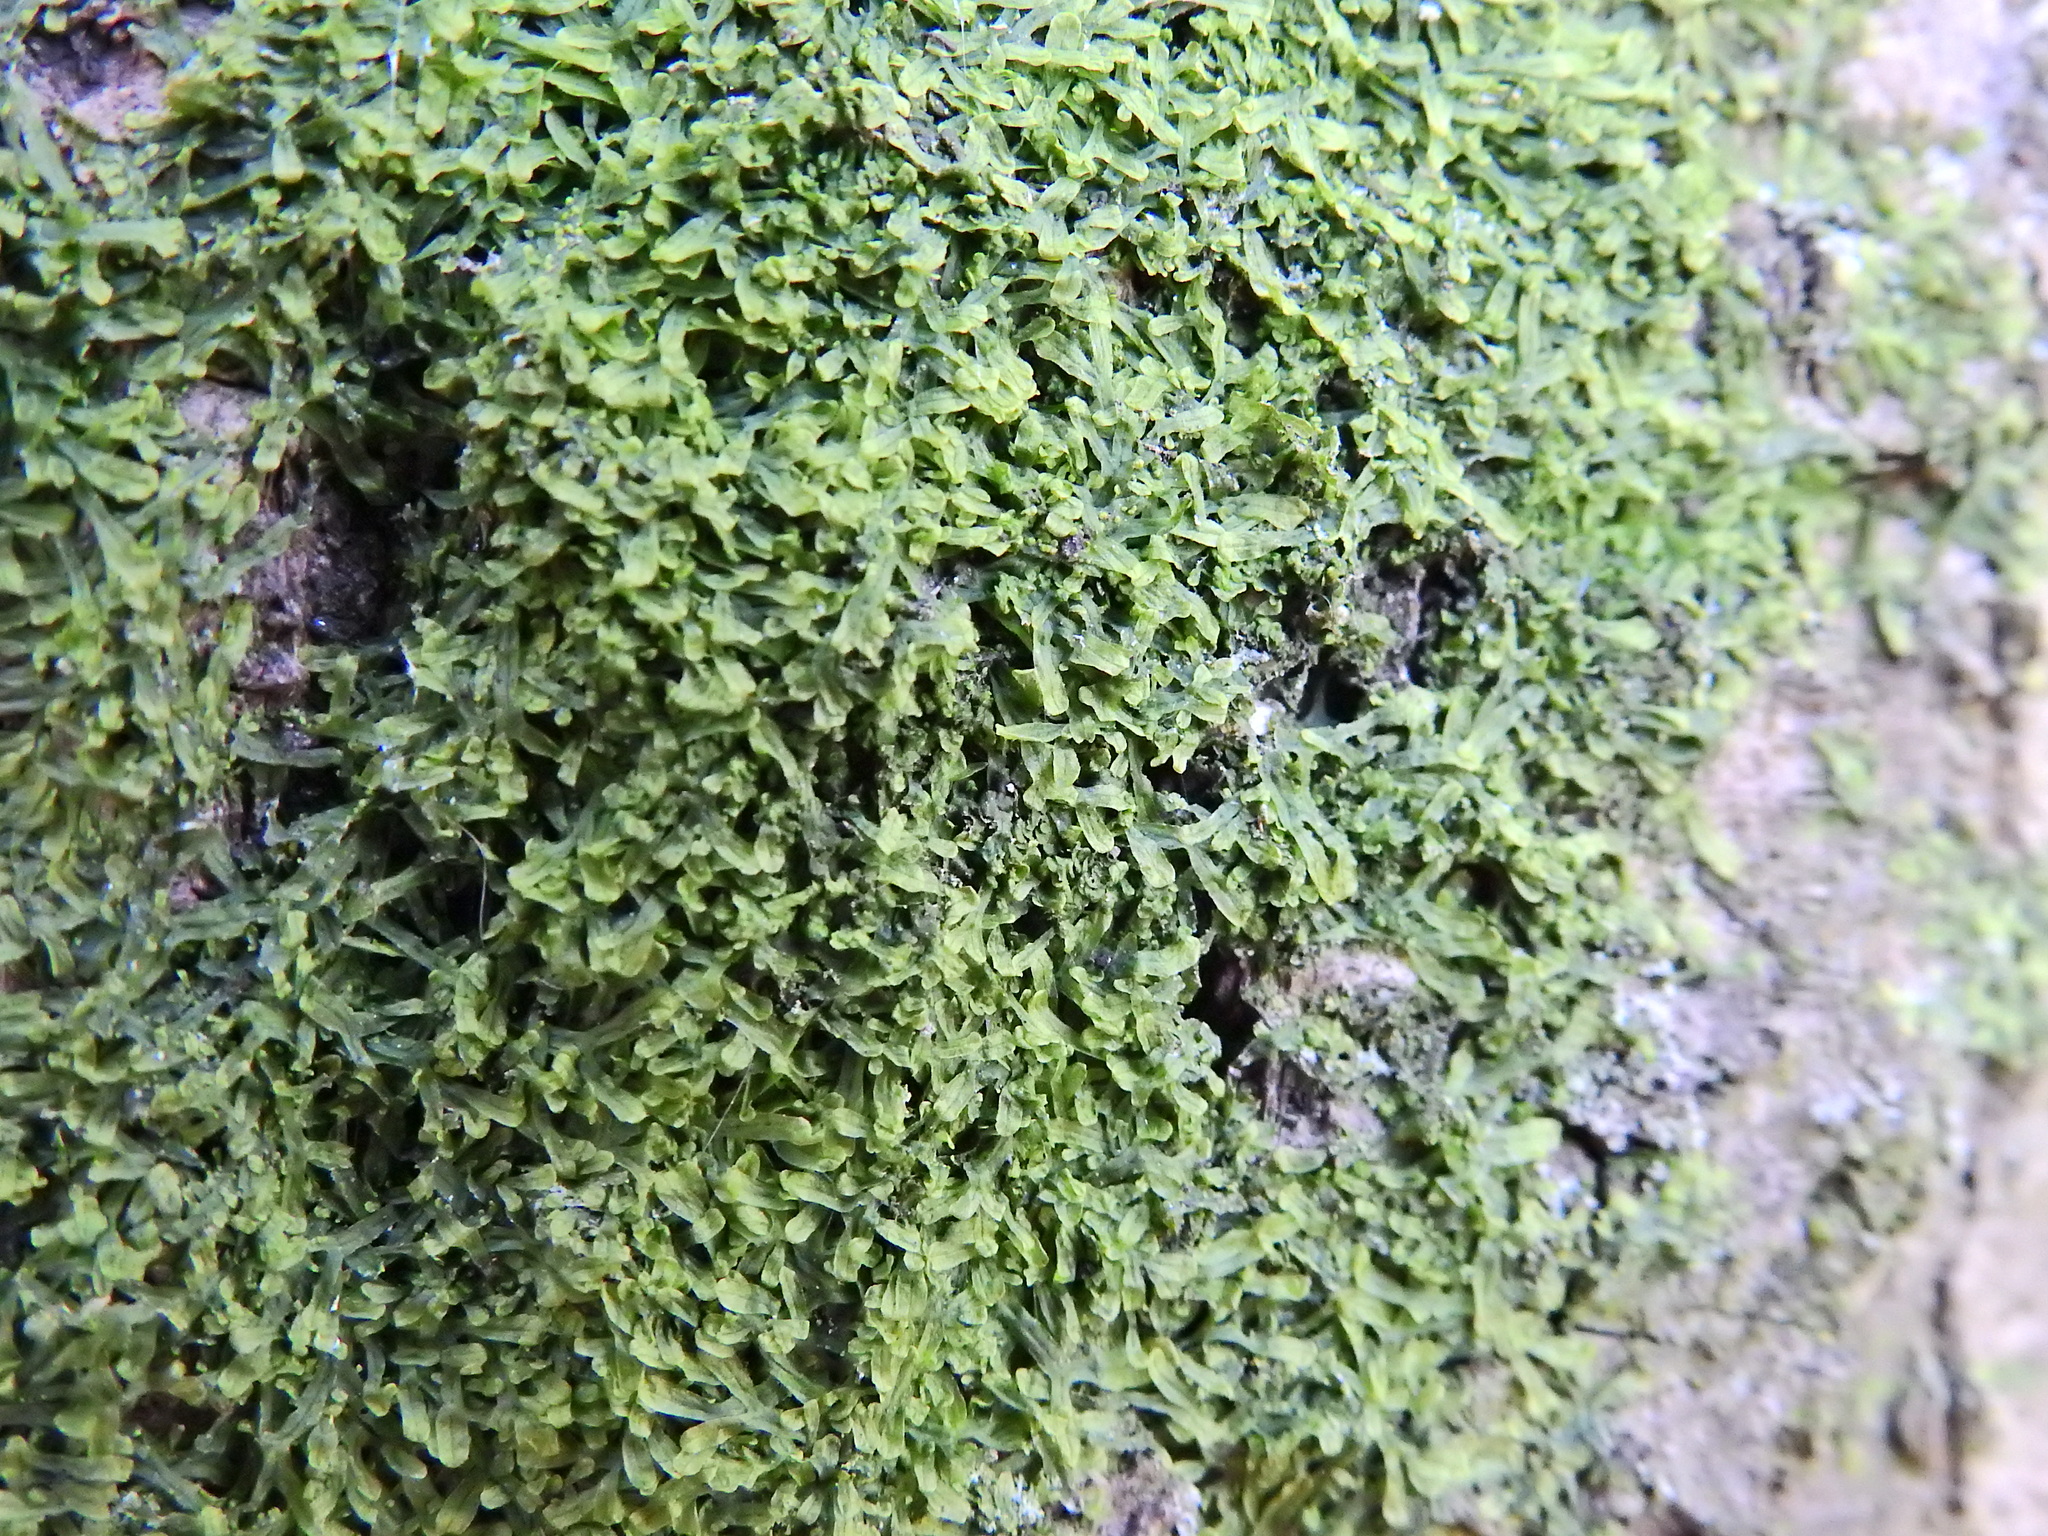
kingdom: Plantae
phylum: Marchantiophyta
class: Jungermanniopsida
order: Metzgeriales
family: Metzgeriaceae
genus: Metzgeria
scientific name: Metzgeria furcata
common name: Forked veilwort
